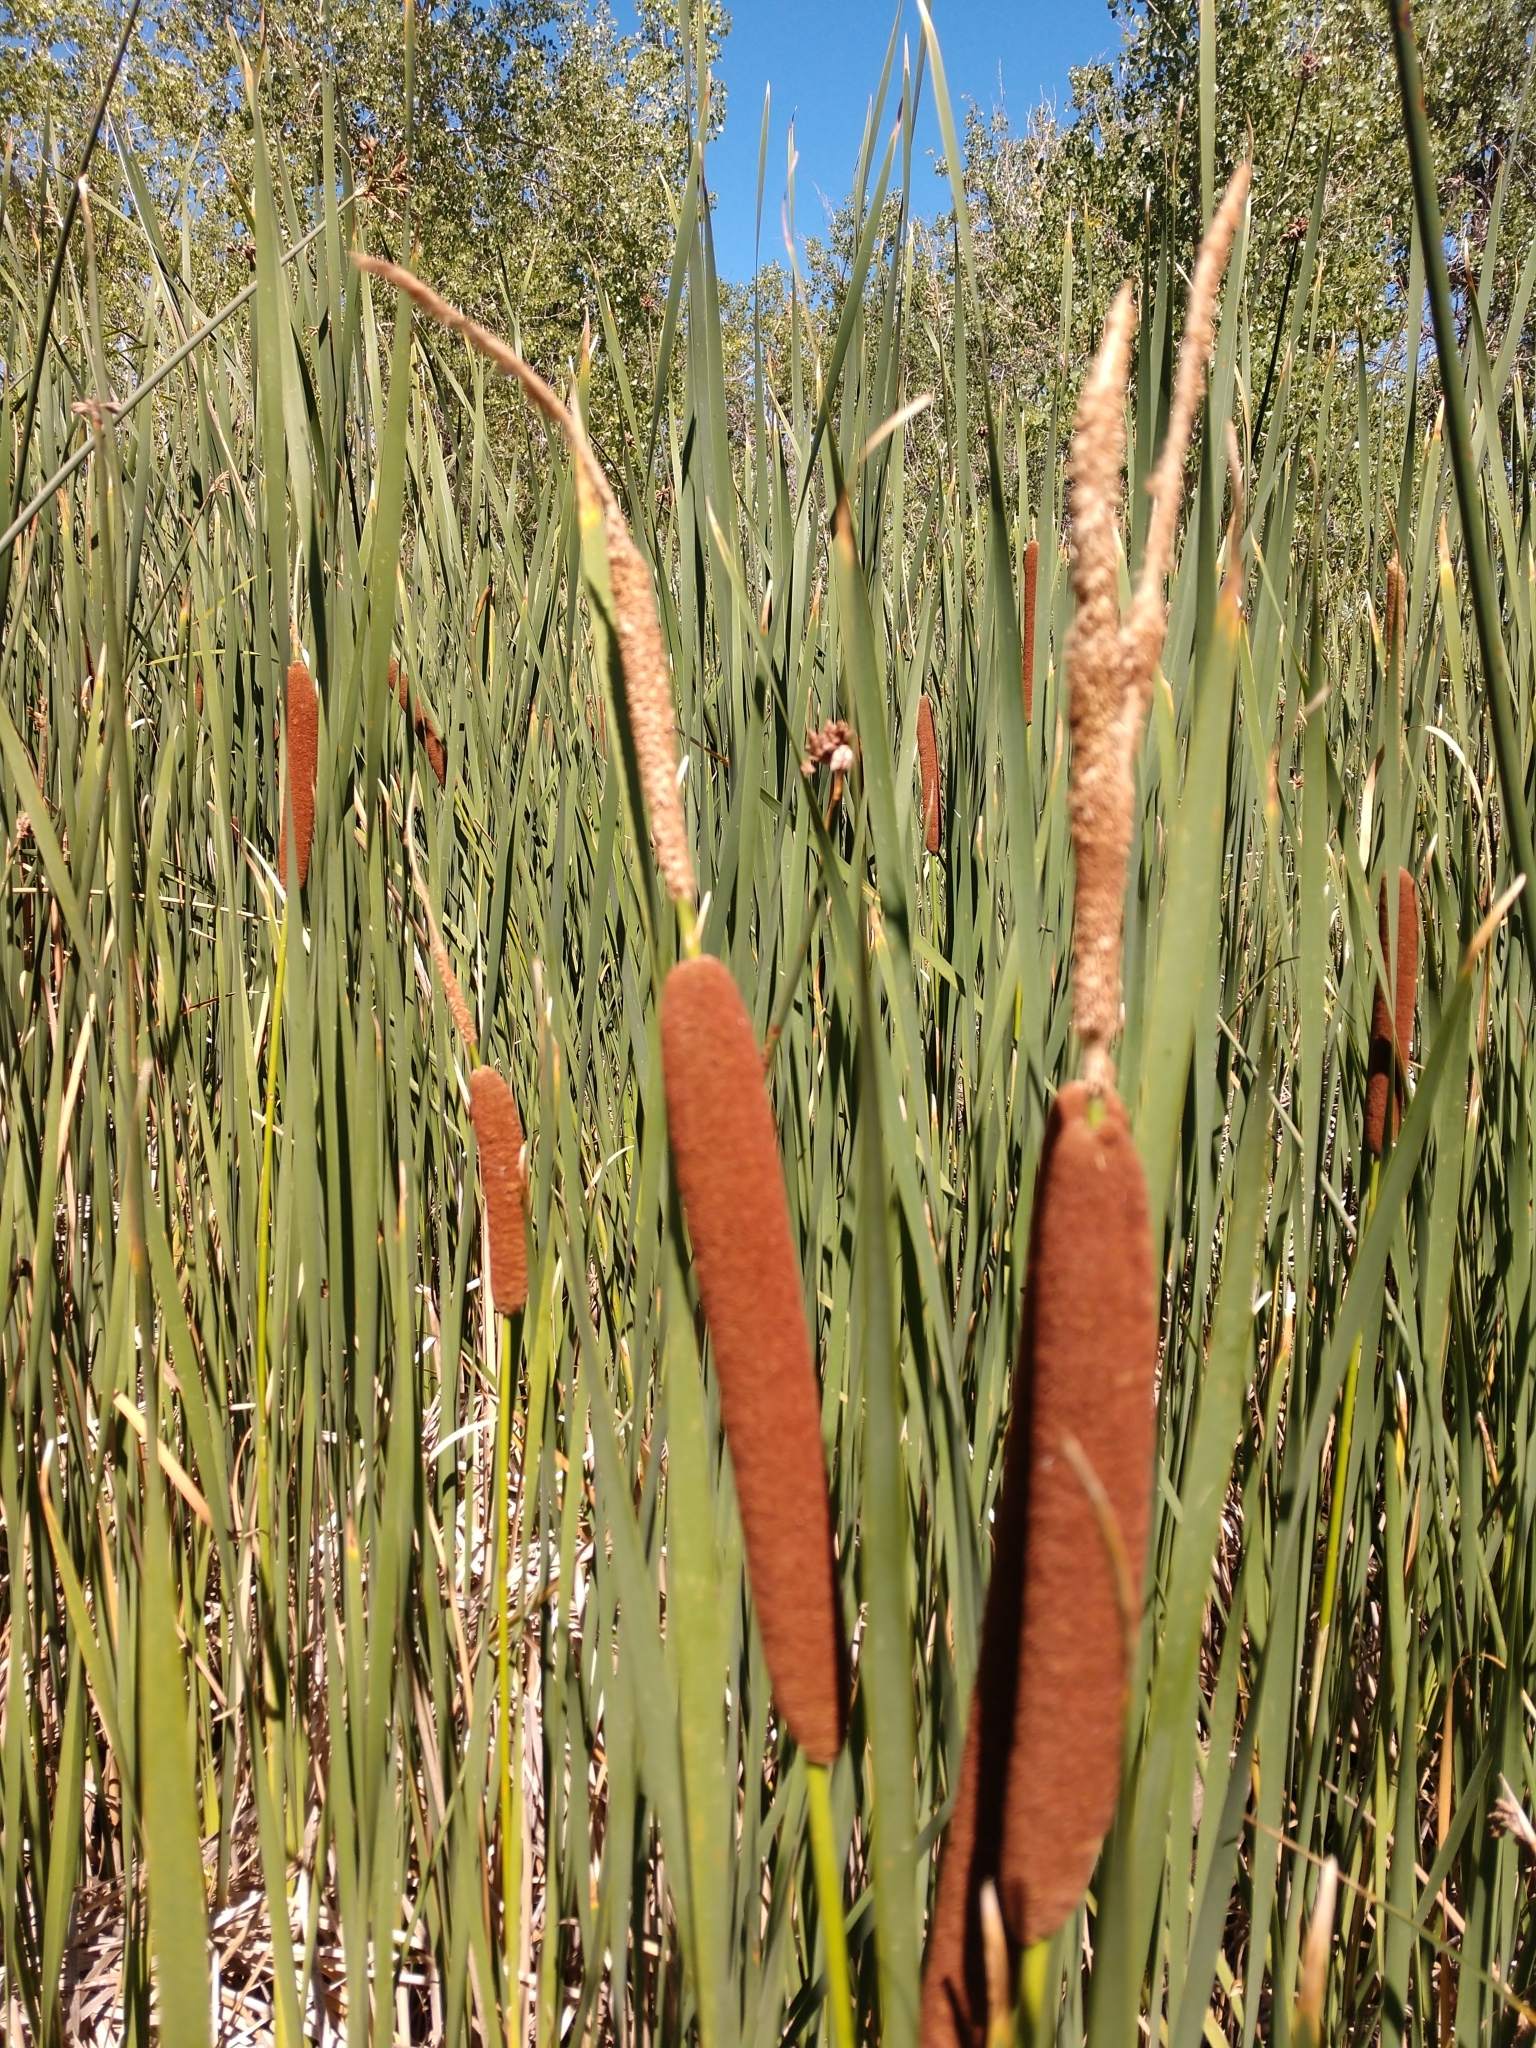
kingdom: Plantae
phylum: Tracheophyta
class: Liliopsida
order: Poales
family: Typhaceae
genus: Typha
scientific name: Typha angustifolia
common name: Lesser bulrush
